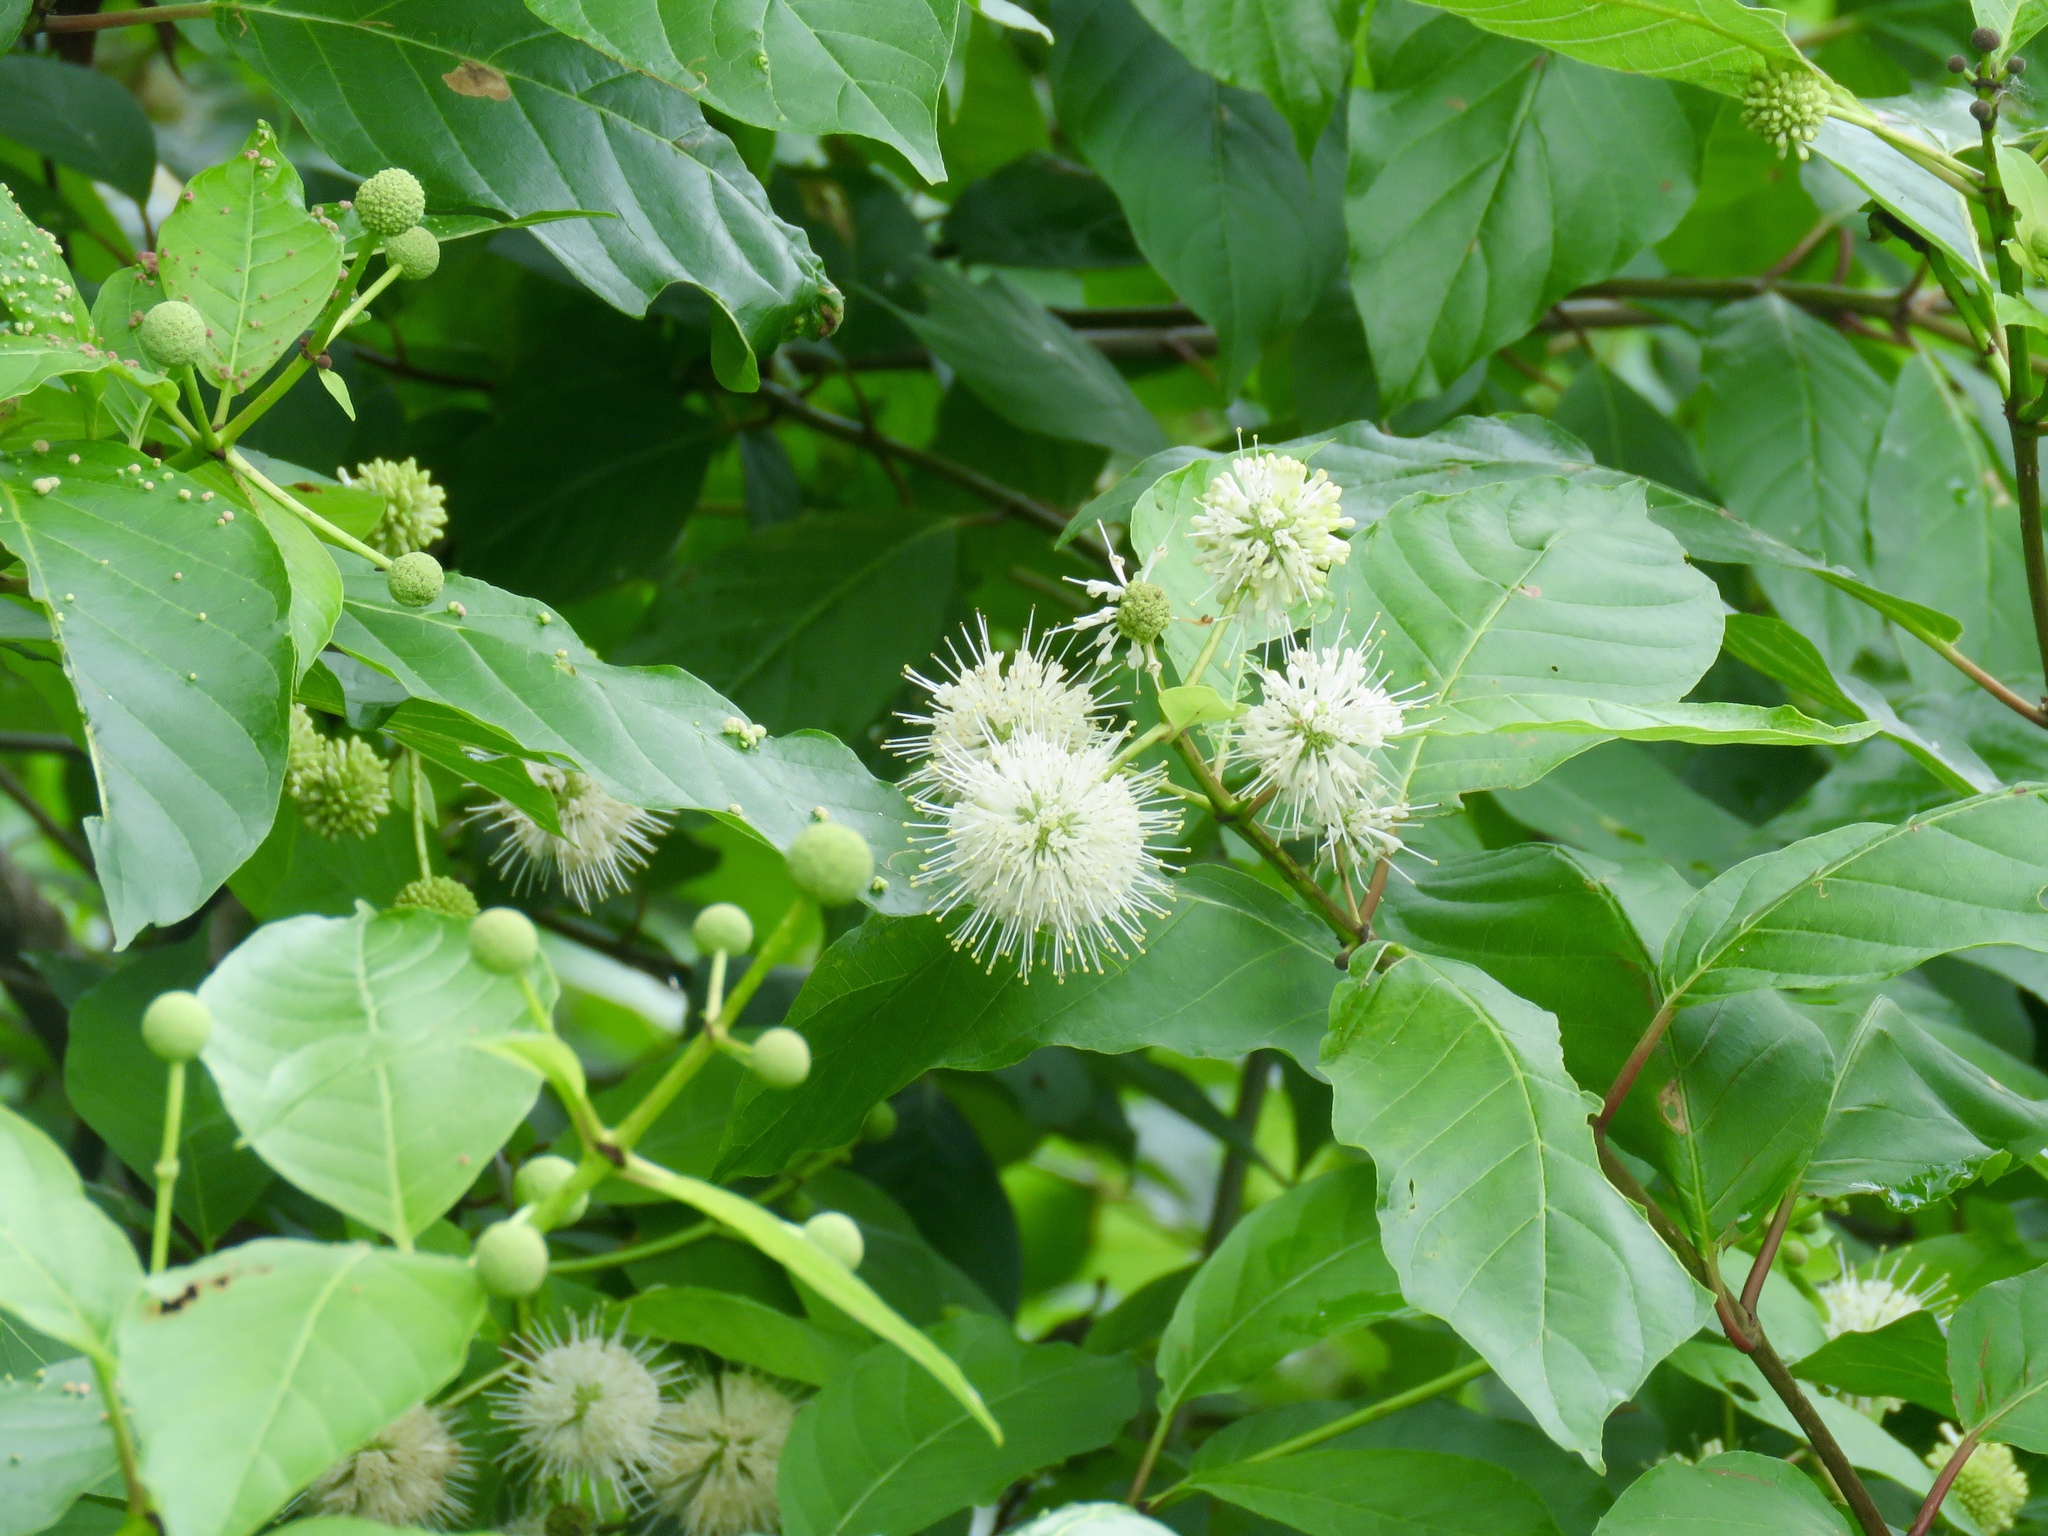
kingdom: Plantae
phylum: Tracheophyta
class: Magnoliopsida
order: Gentianales
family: Rubiaceae
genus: Cephalanthus
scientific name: Cephalanthus occidentalis
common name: Button-willow
